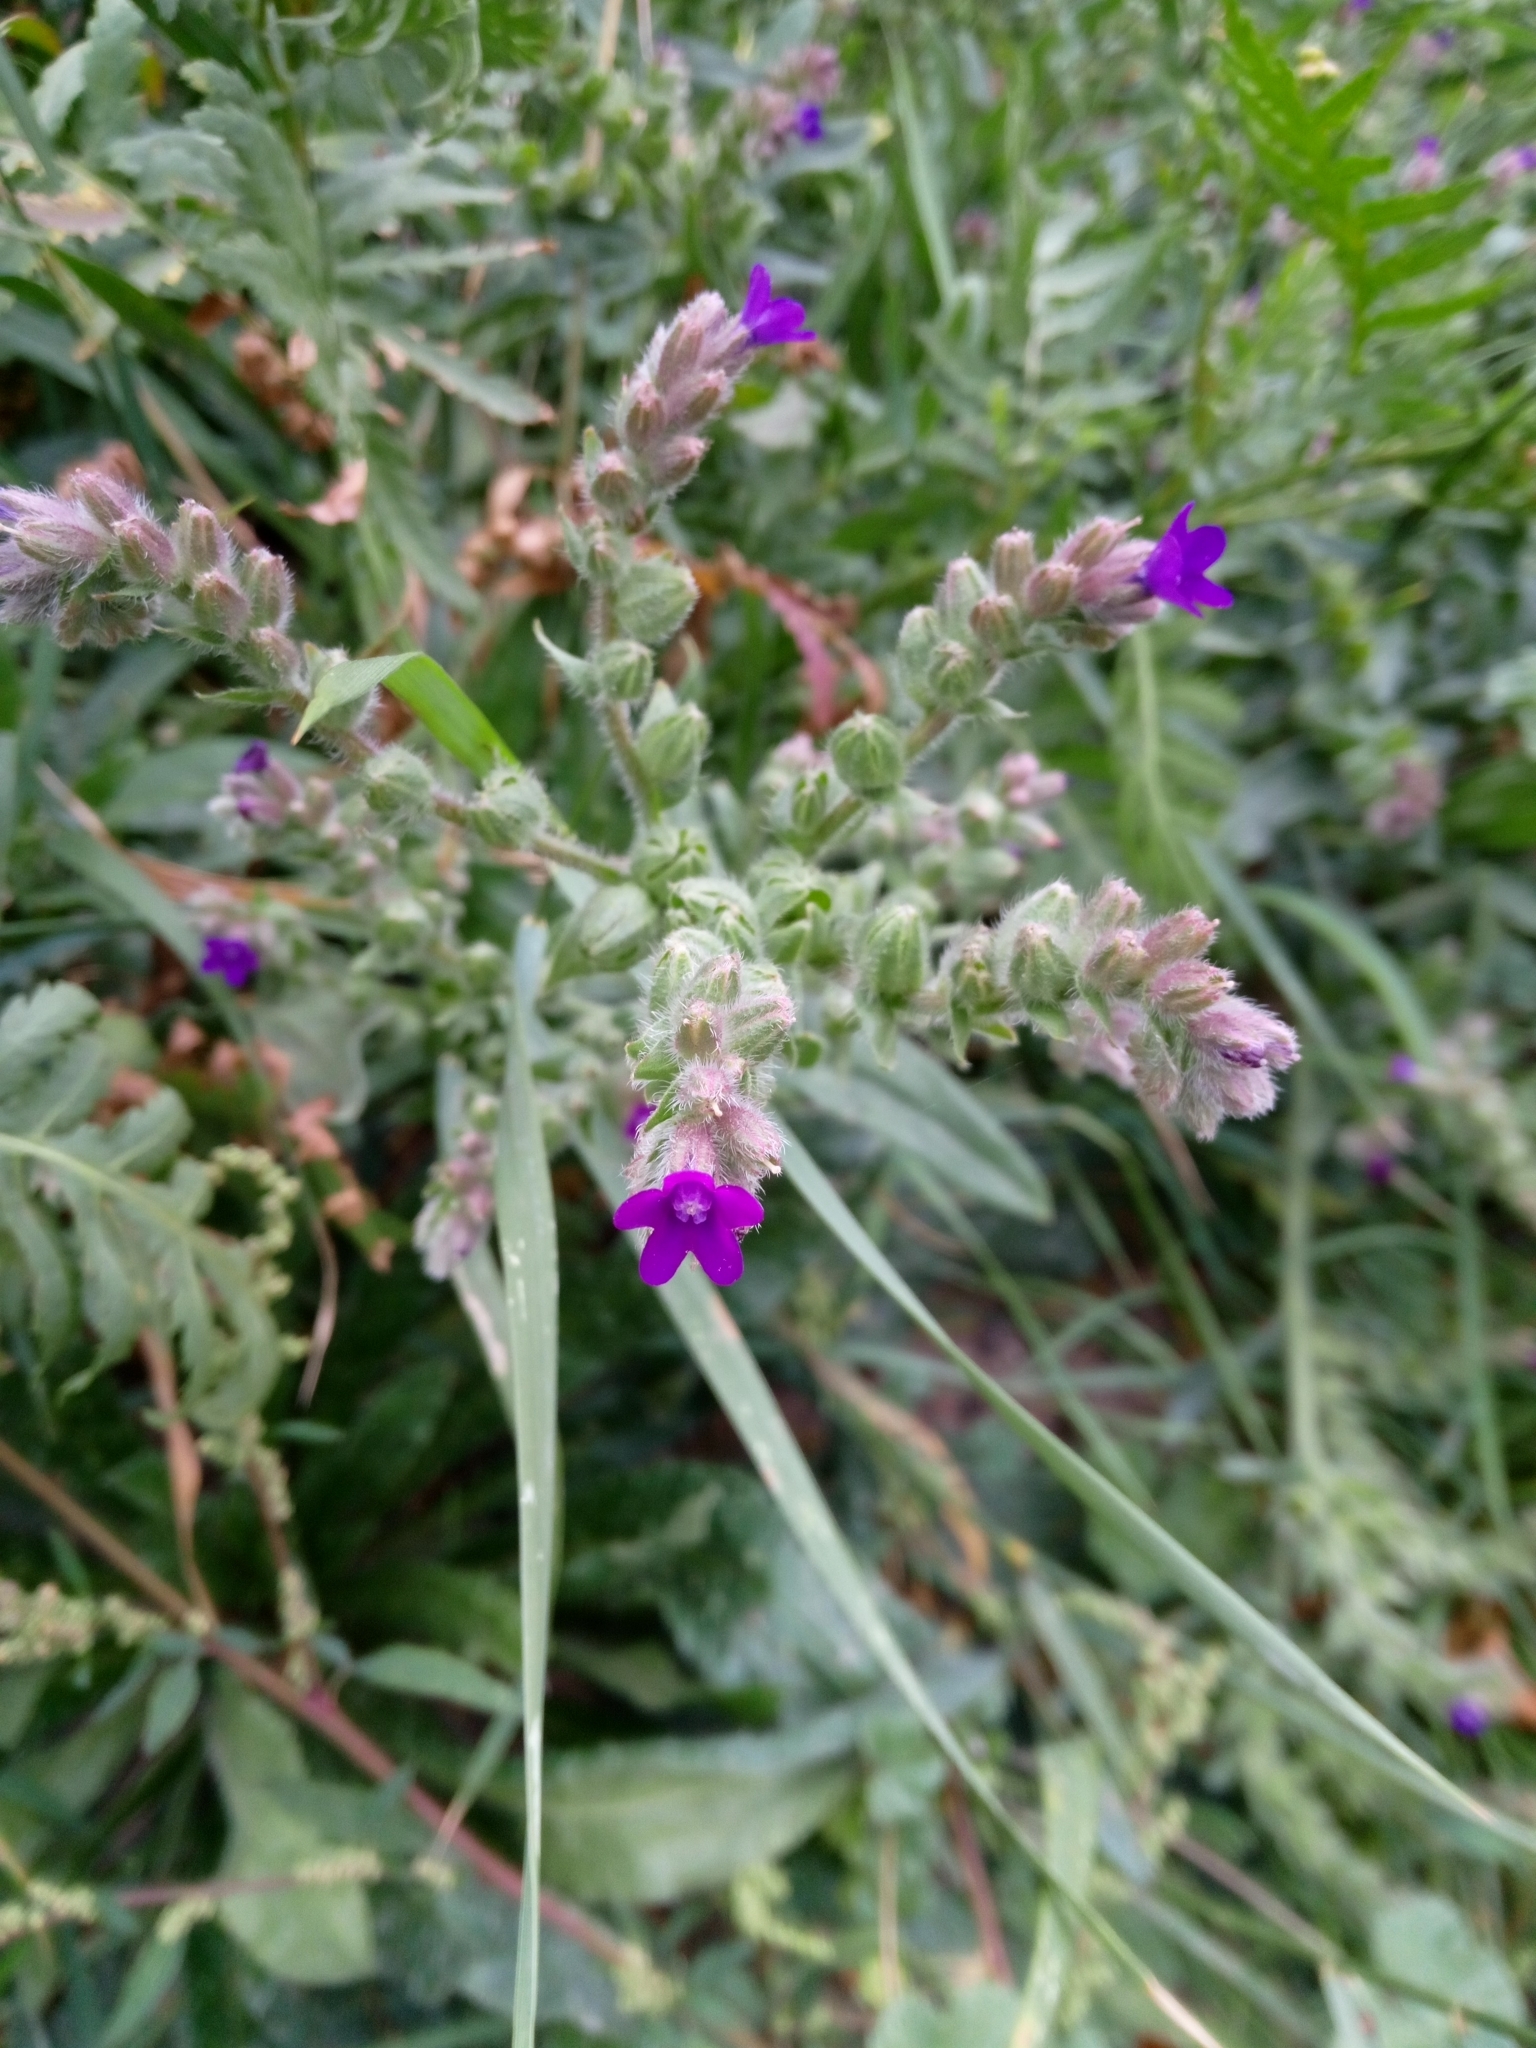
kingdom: Plantae
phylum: Tracheophyta
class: Magnoliopsida
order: Boraginales
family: Boraginaceae
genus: Anchusa
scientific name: Anchusa officinalis
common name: Alkanet
